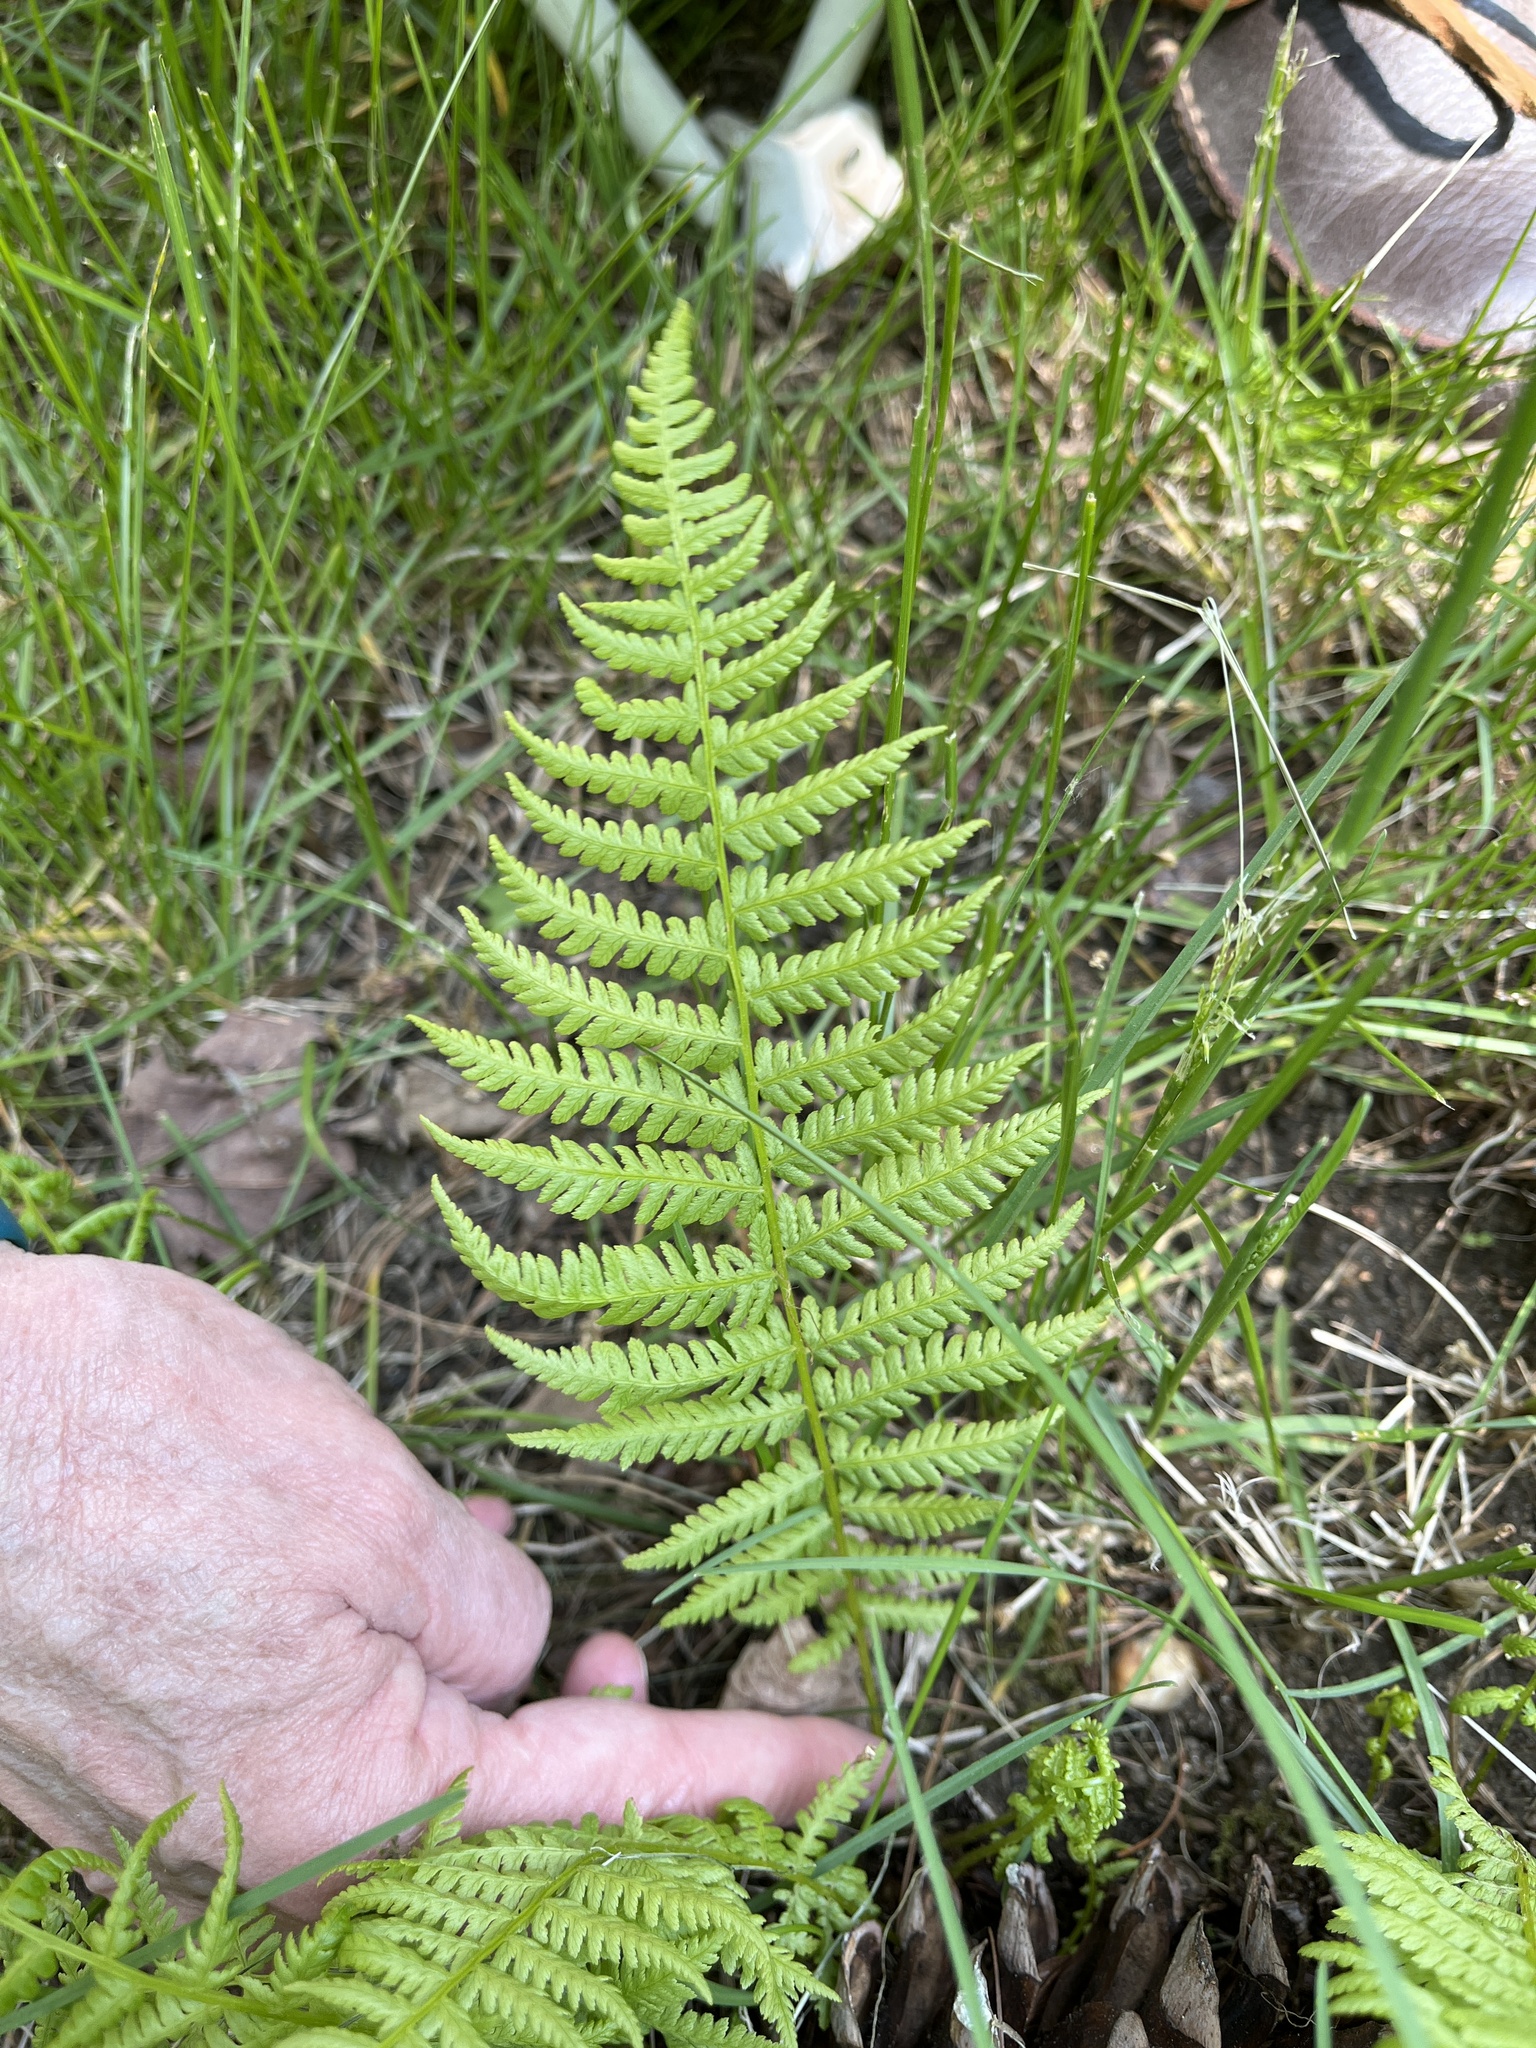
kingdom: Plantae
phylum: Tracheophyta
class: Polypodiopsida
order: Polypodiales
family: Athyriaceae
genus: Athyrium
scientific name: Athyrium angustum
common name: Northern lady fern
